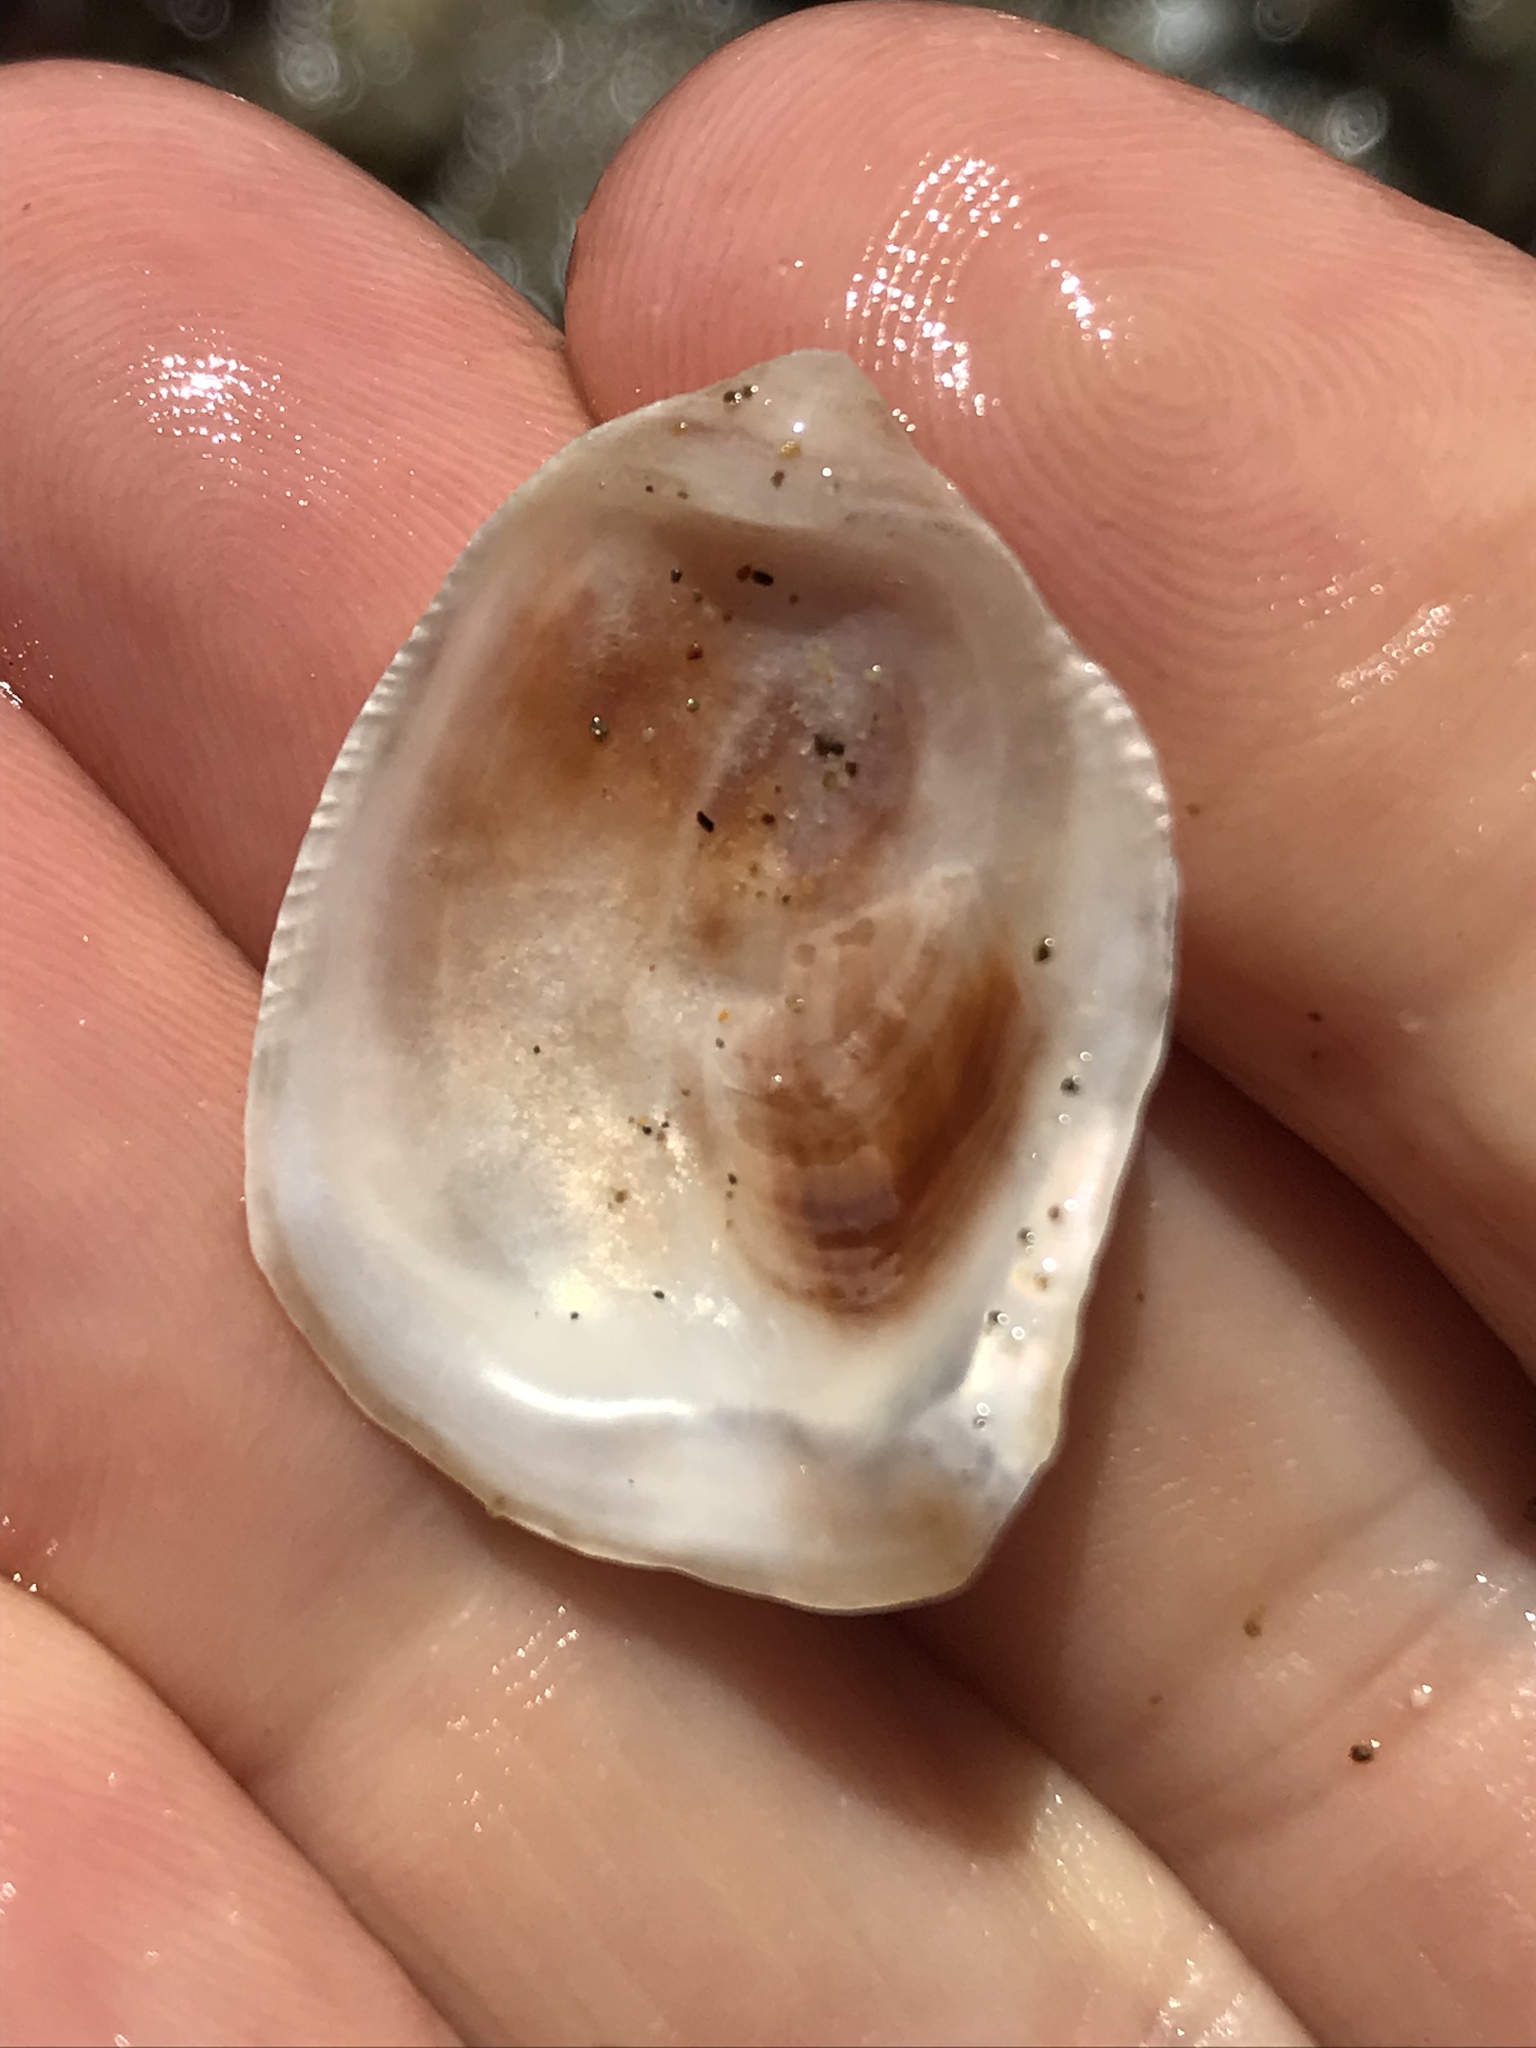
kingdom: Animalia
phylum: Mollusca
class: Bivalvia
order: Ostreida
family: Ostreidae
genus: Ostrea
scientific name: Ostrea lurida
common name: Olympia flat oyster
